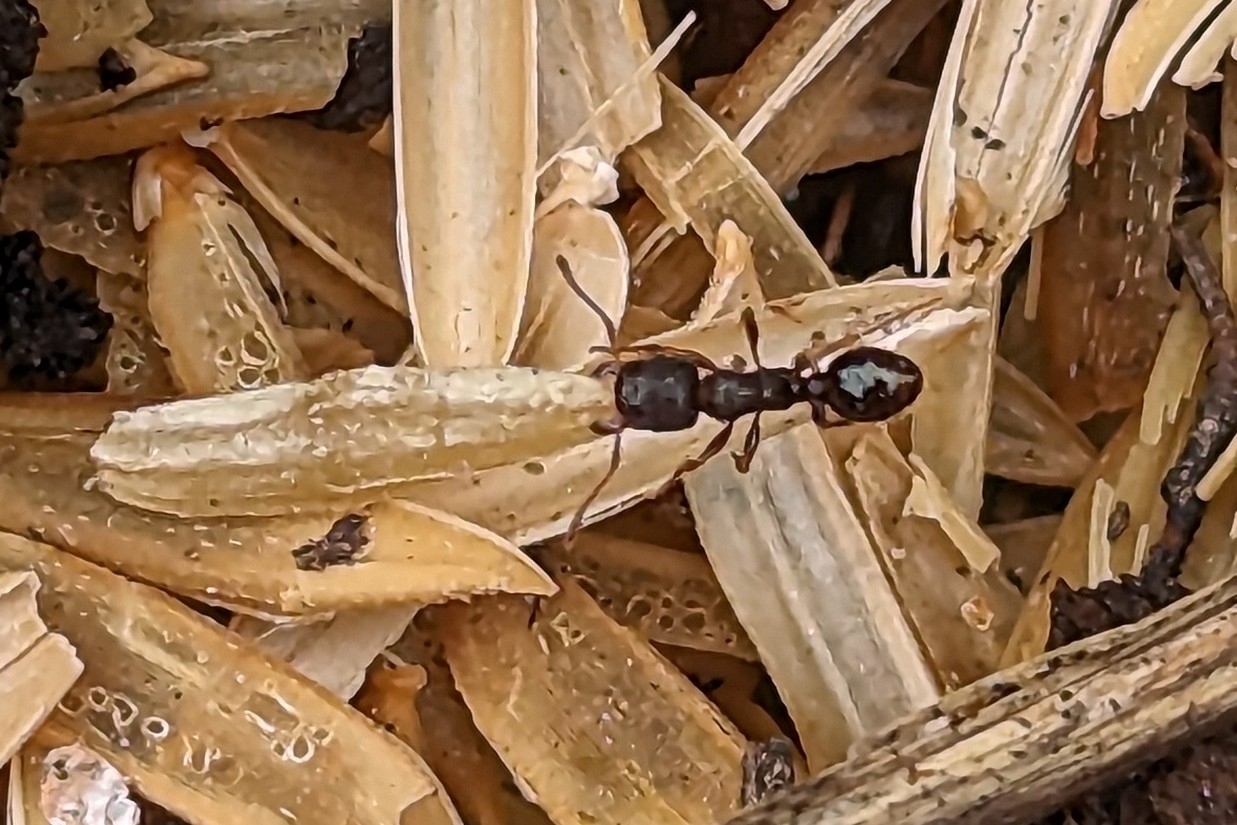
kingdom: Animalia
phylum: Arthropoda
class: Insecta
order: Hymenoptera
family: Formicidae
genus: Tetramorium
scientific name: Tetramorium immigrans
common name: Pavement ant
